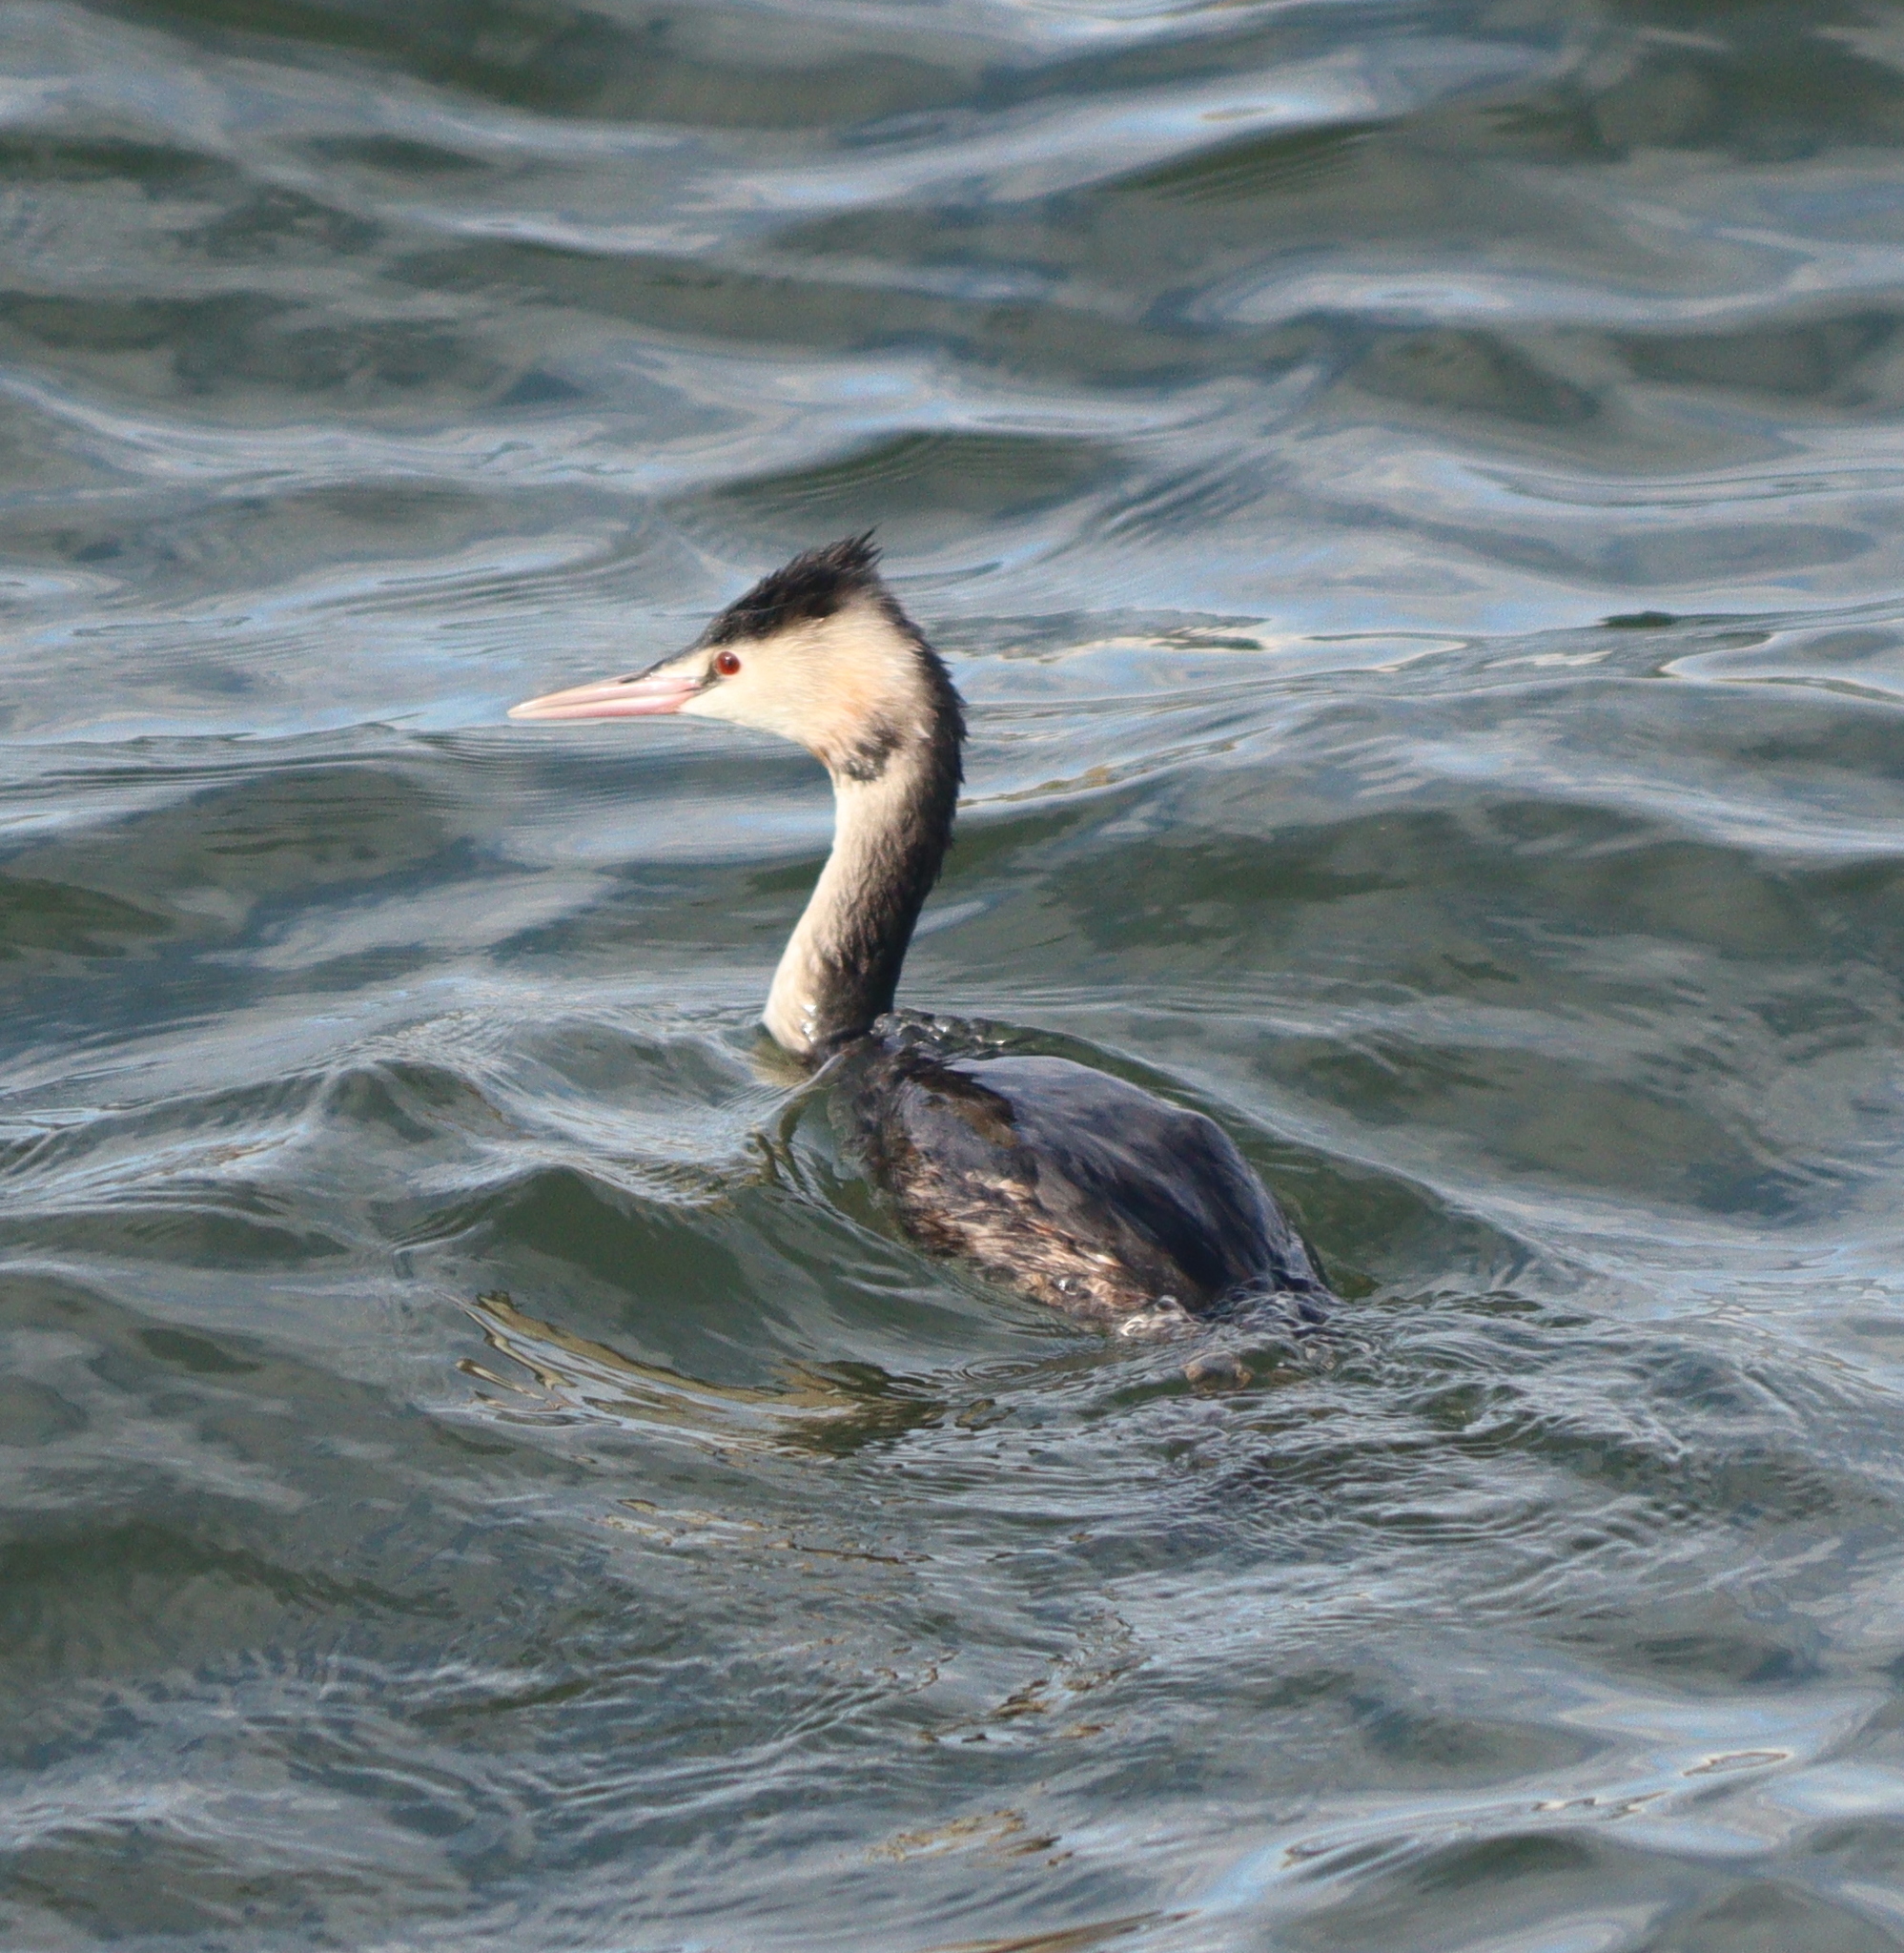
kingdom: Animalia
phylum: Chordata
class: Aves
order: Podicipediformes
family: Podicipedidae
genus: Podiceps
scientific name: Podiceps cristatus
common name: Great crested grebe
